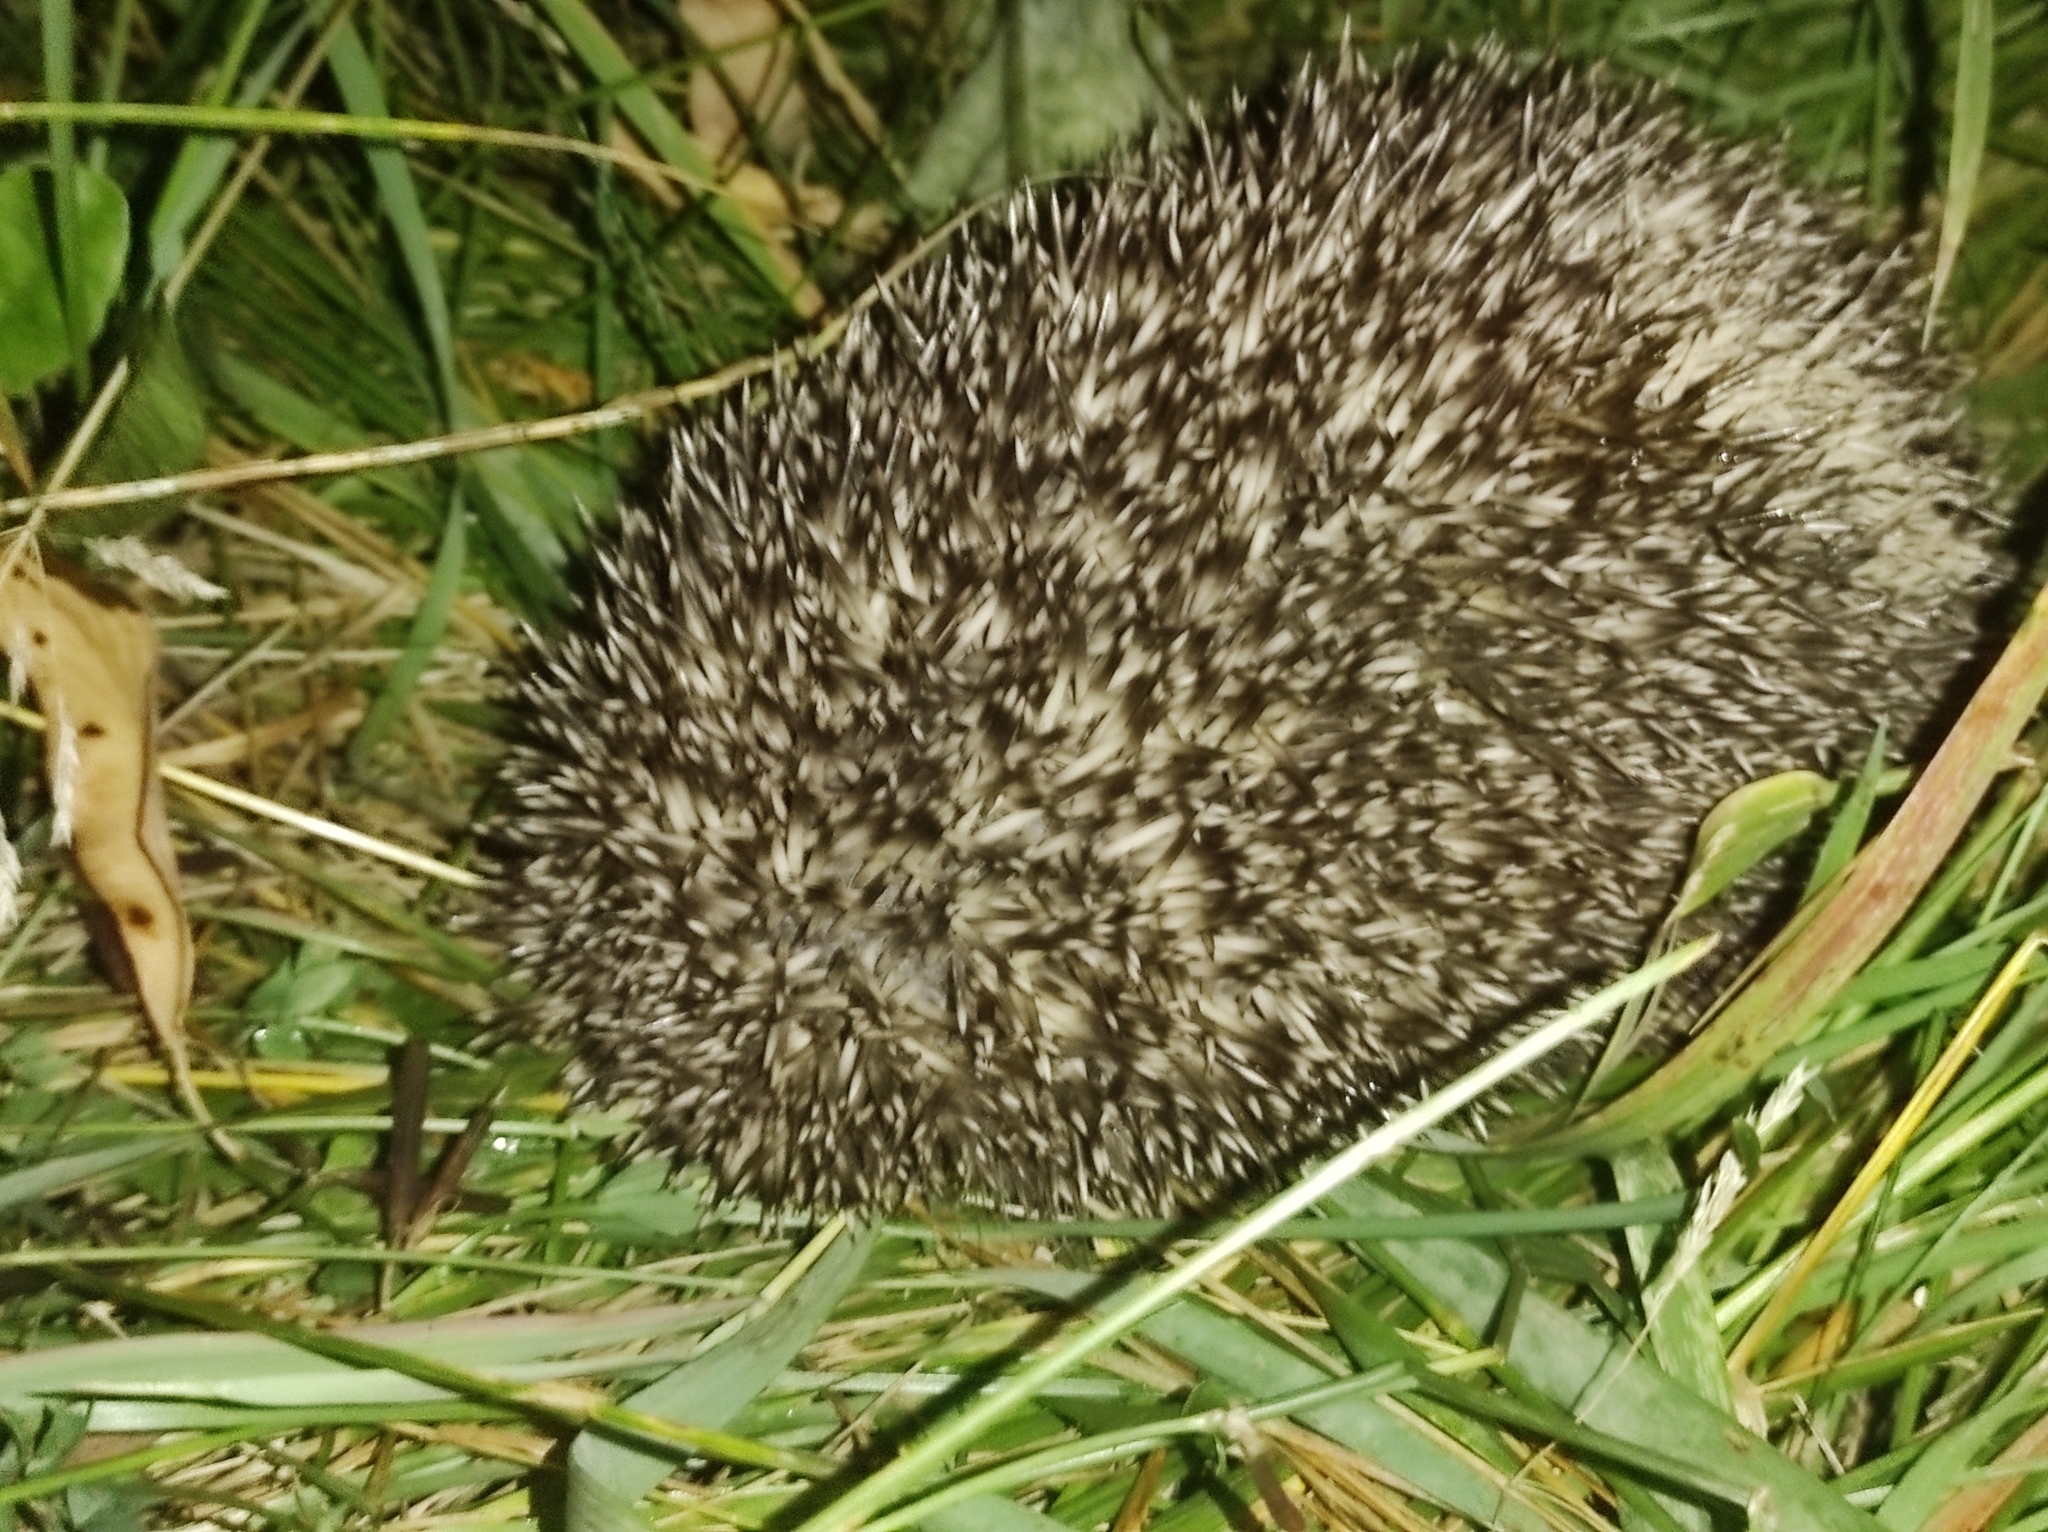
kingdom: Animalia
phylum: Chordata
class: Mammalia
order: Erinaceomorpha
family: Erinaceidae
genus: Erinaceus
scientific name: Erinaceus roumanicus
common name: Northern white-breasted hedgehog
